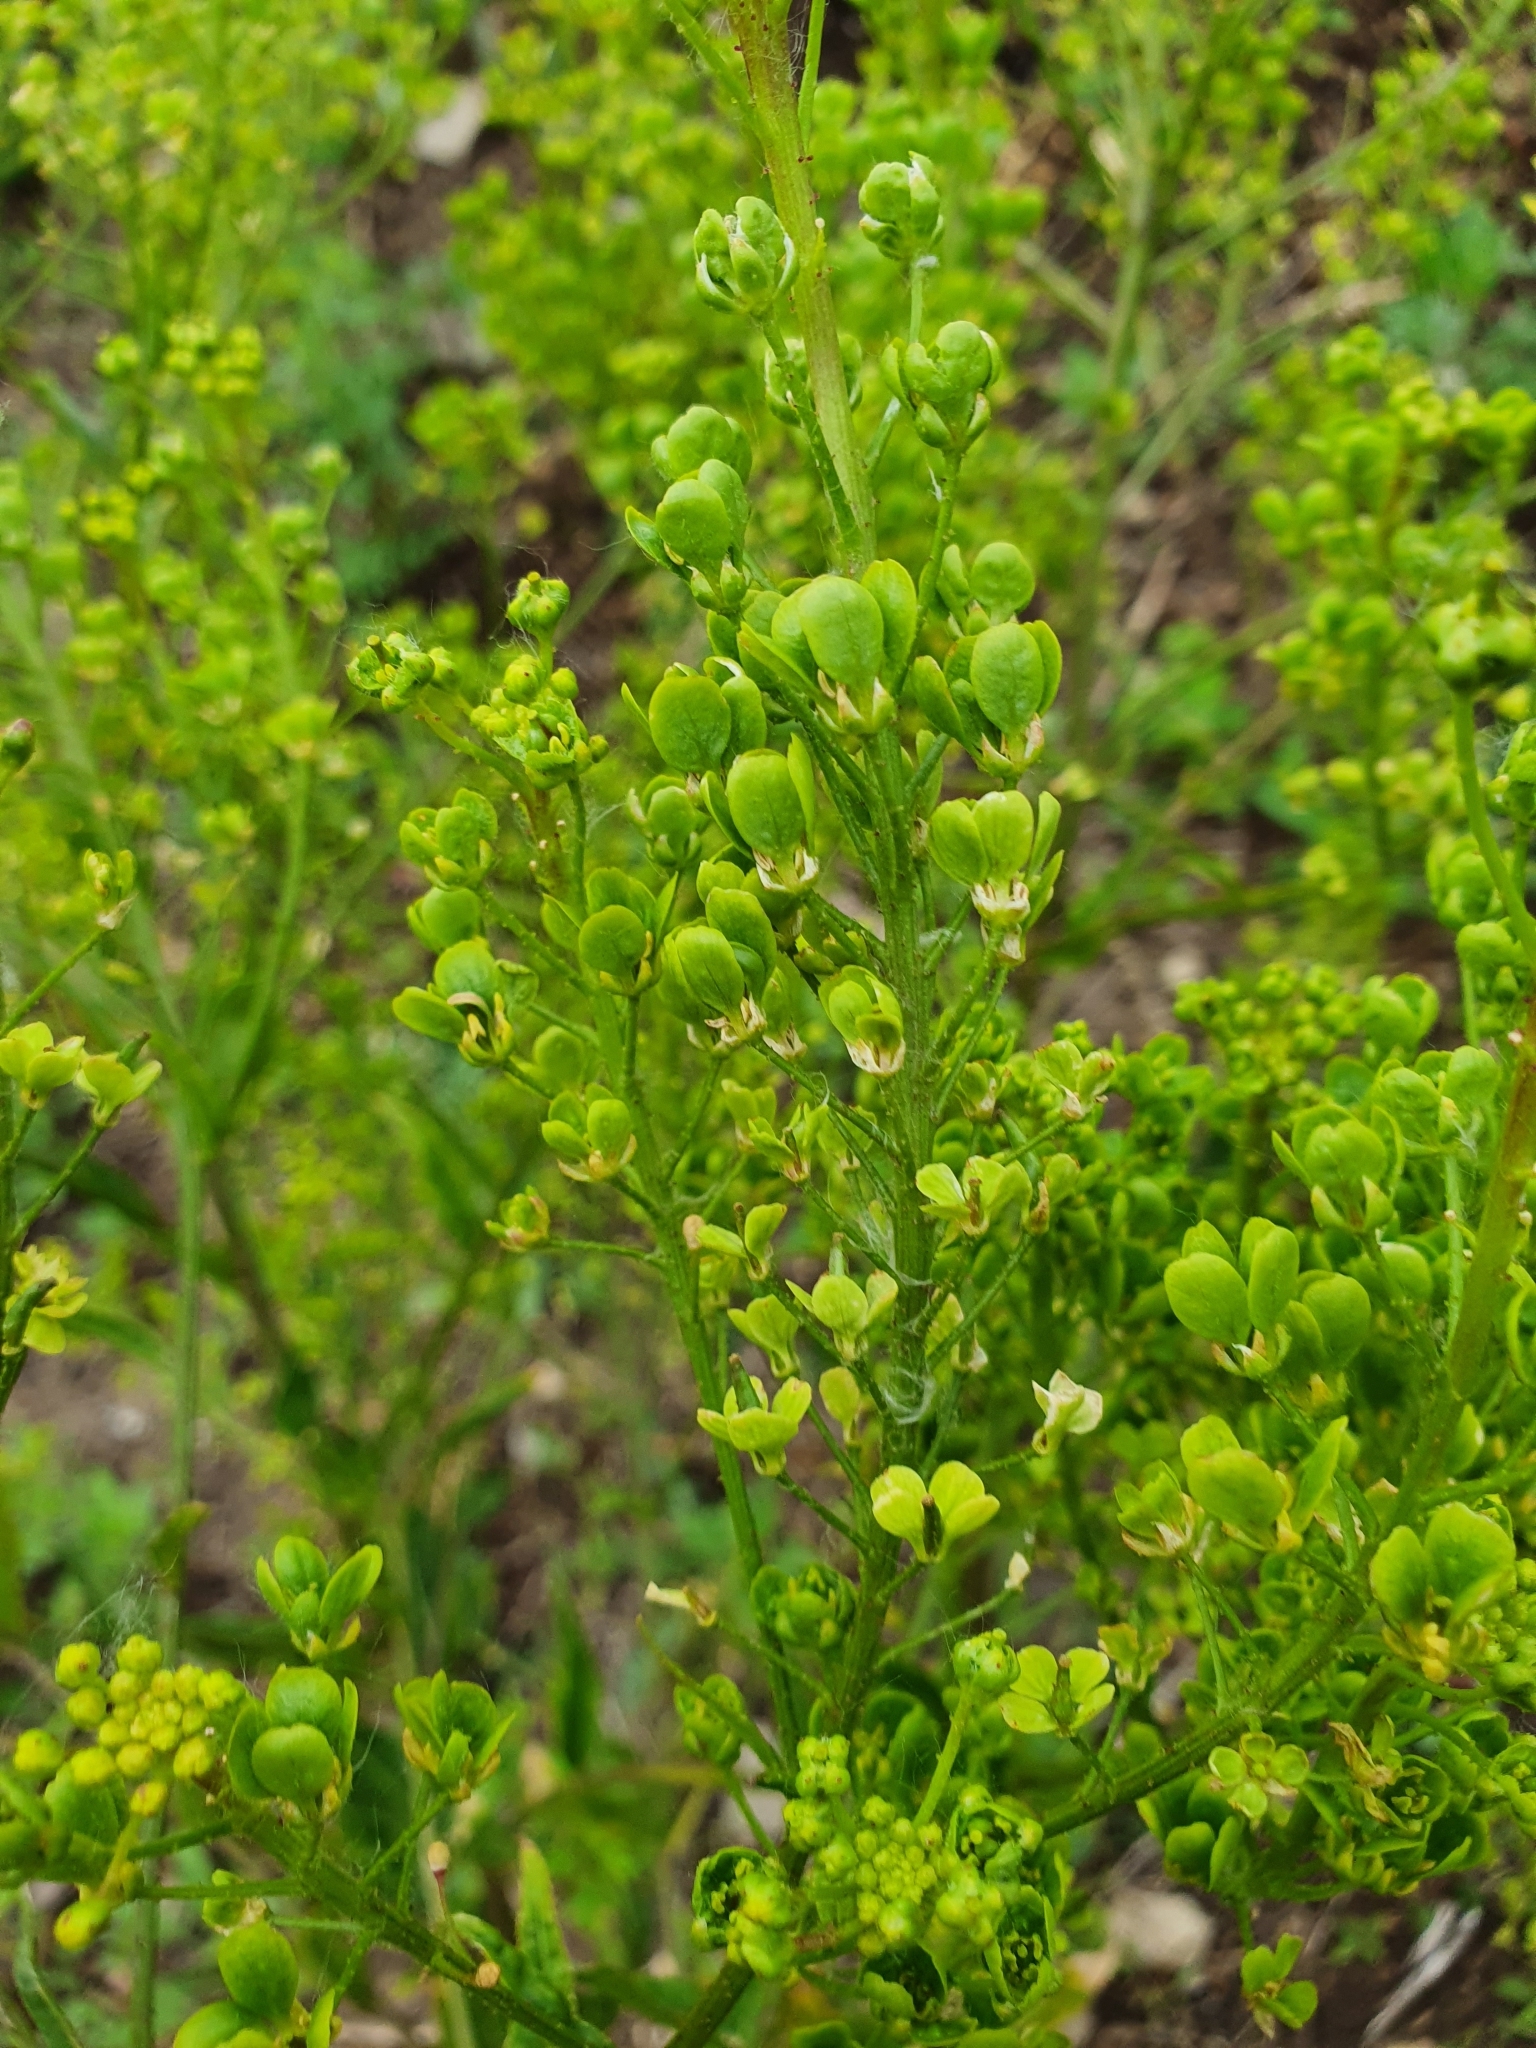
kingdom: Plantae
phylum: Tracheophyta
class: Magnoliopsida
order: Brassicales
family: Brassicaceae
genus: Bunias
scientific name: Bunias orientalis
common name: Warty-cabbage
